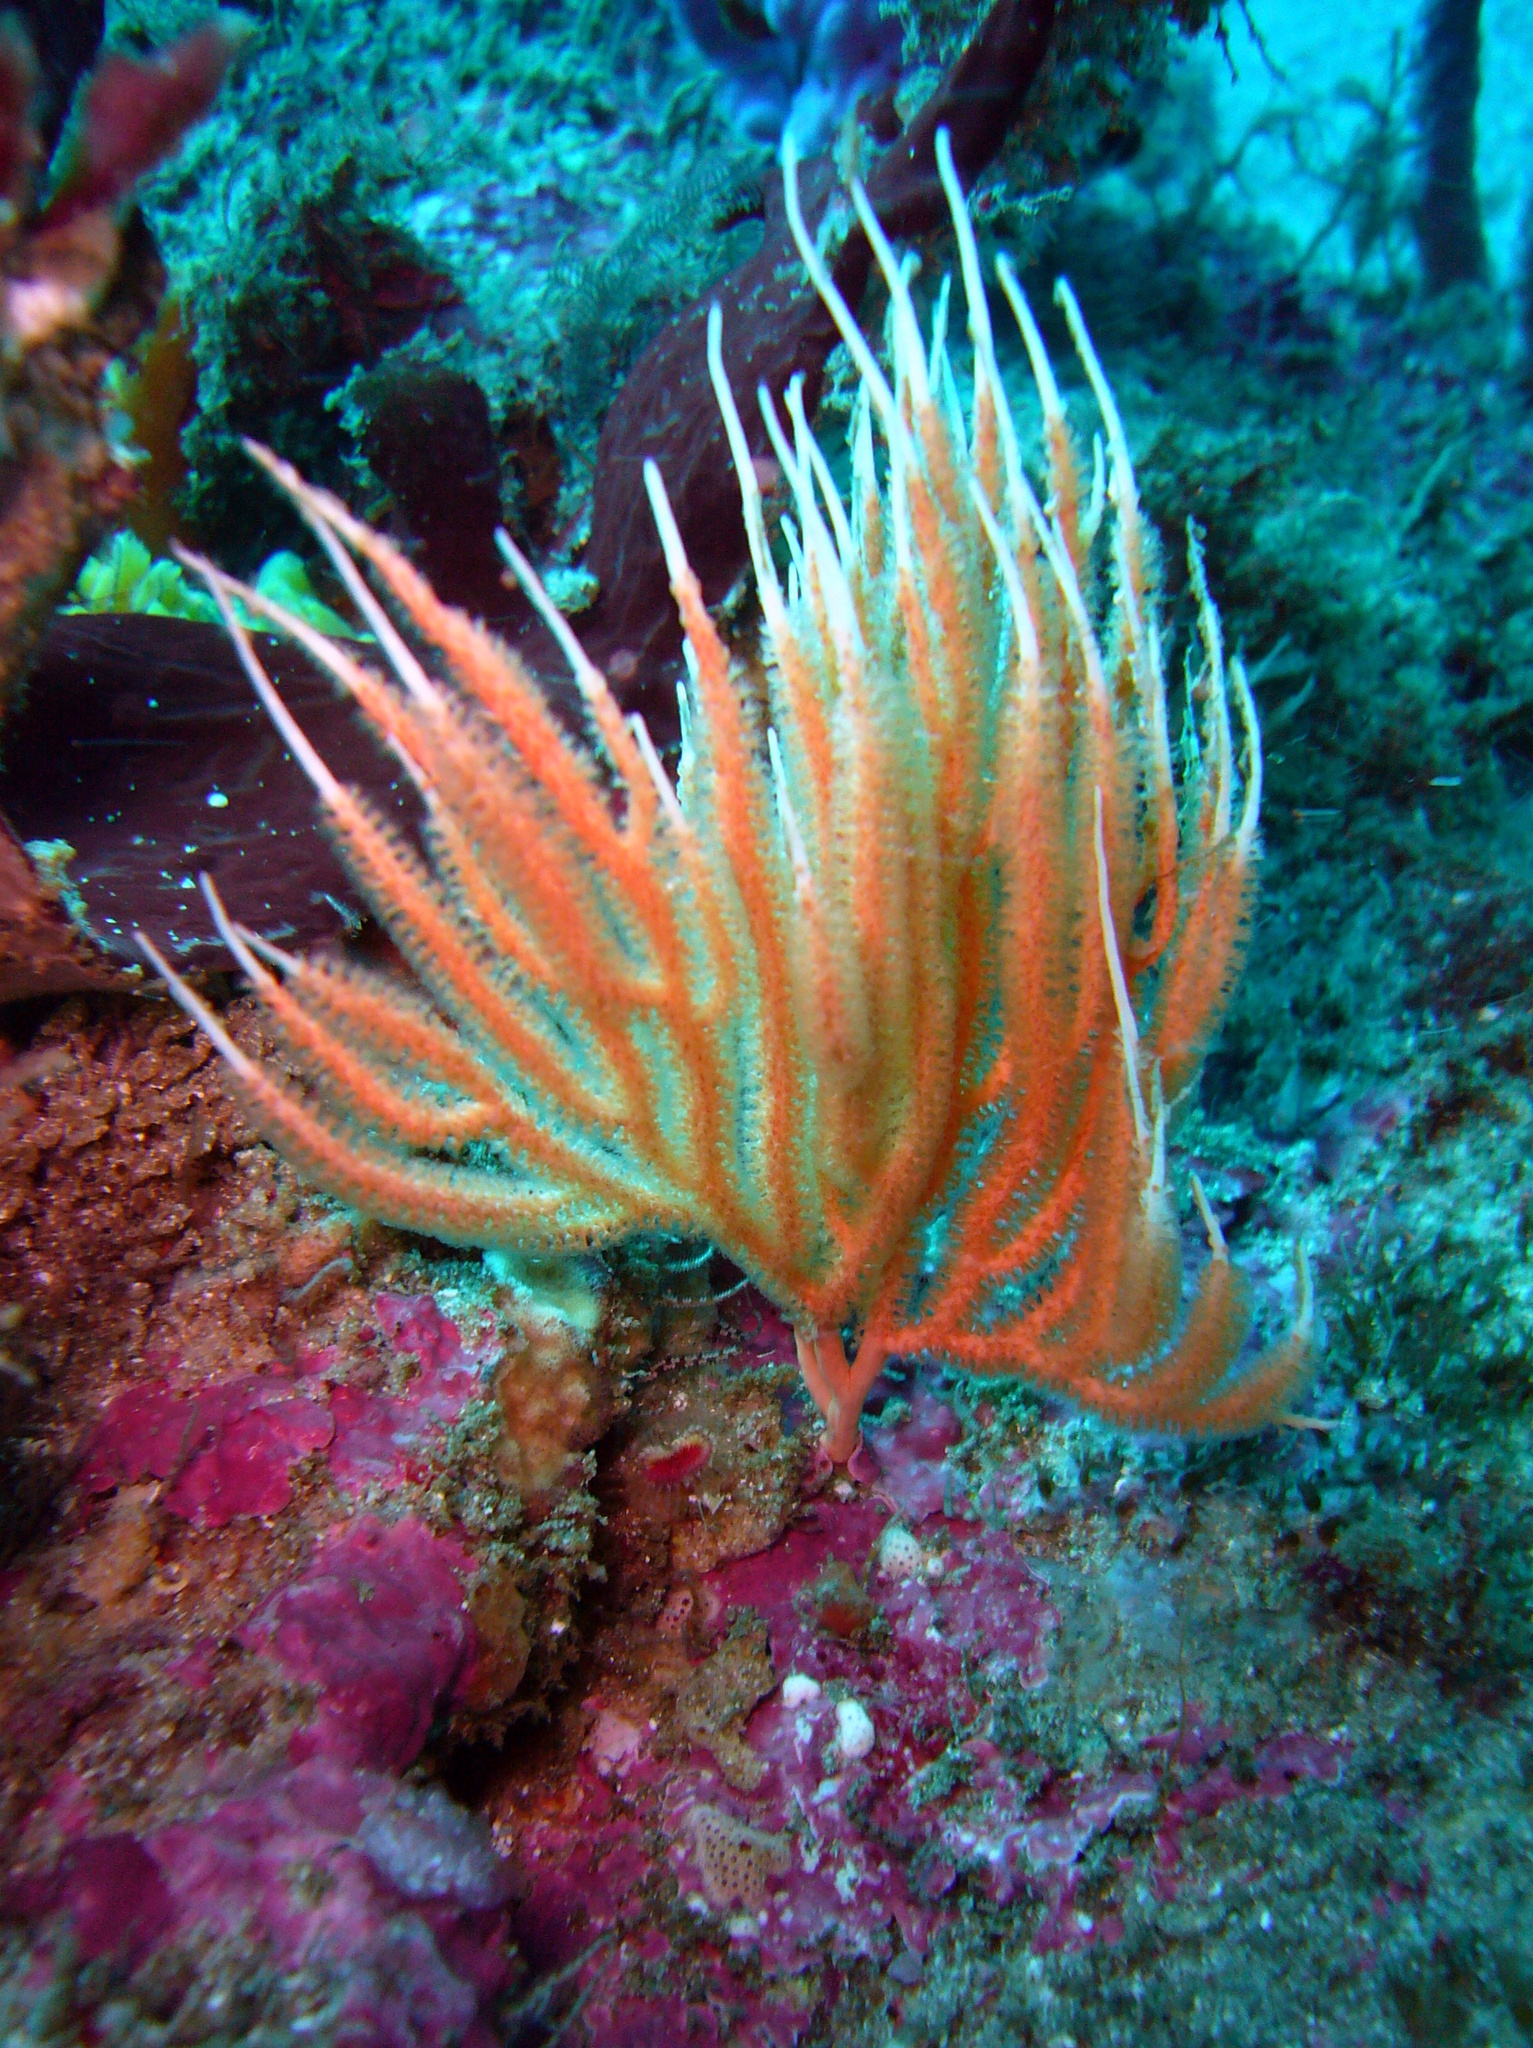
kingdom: Animalia
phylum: Cnidaria
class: Anthozoa
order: Scleralcyonacea
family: Mopseidae
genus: Sphaerokodisis
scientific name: Sphaerokodisis australis
